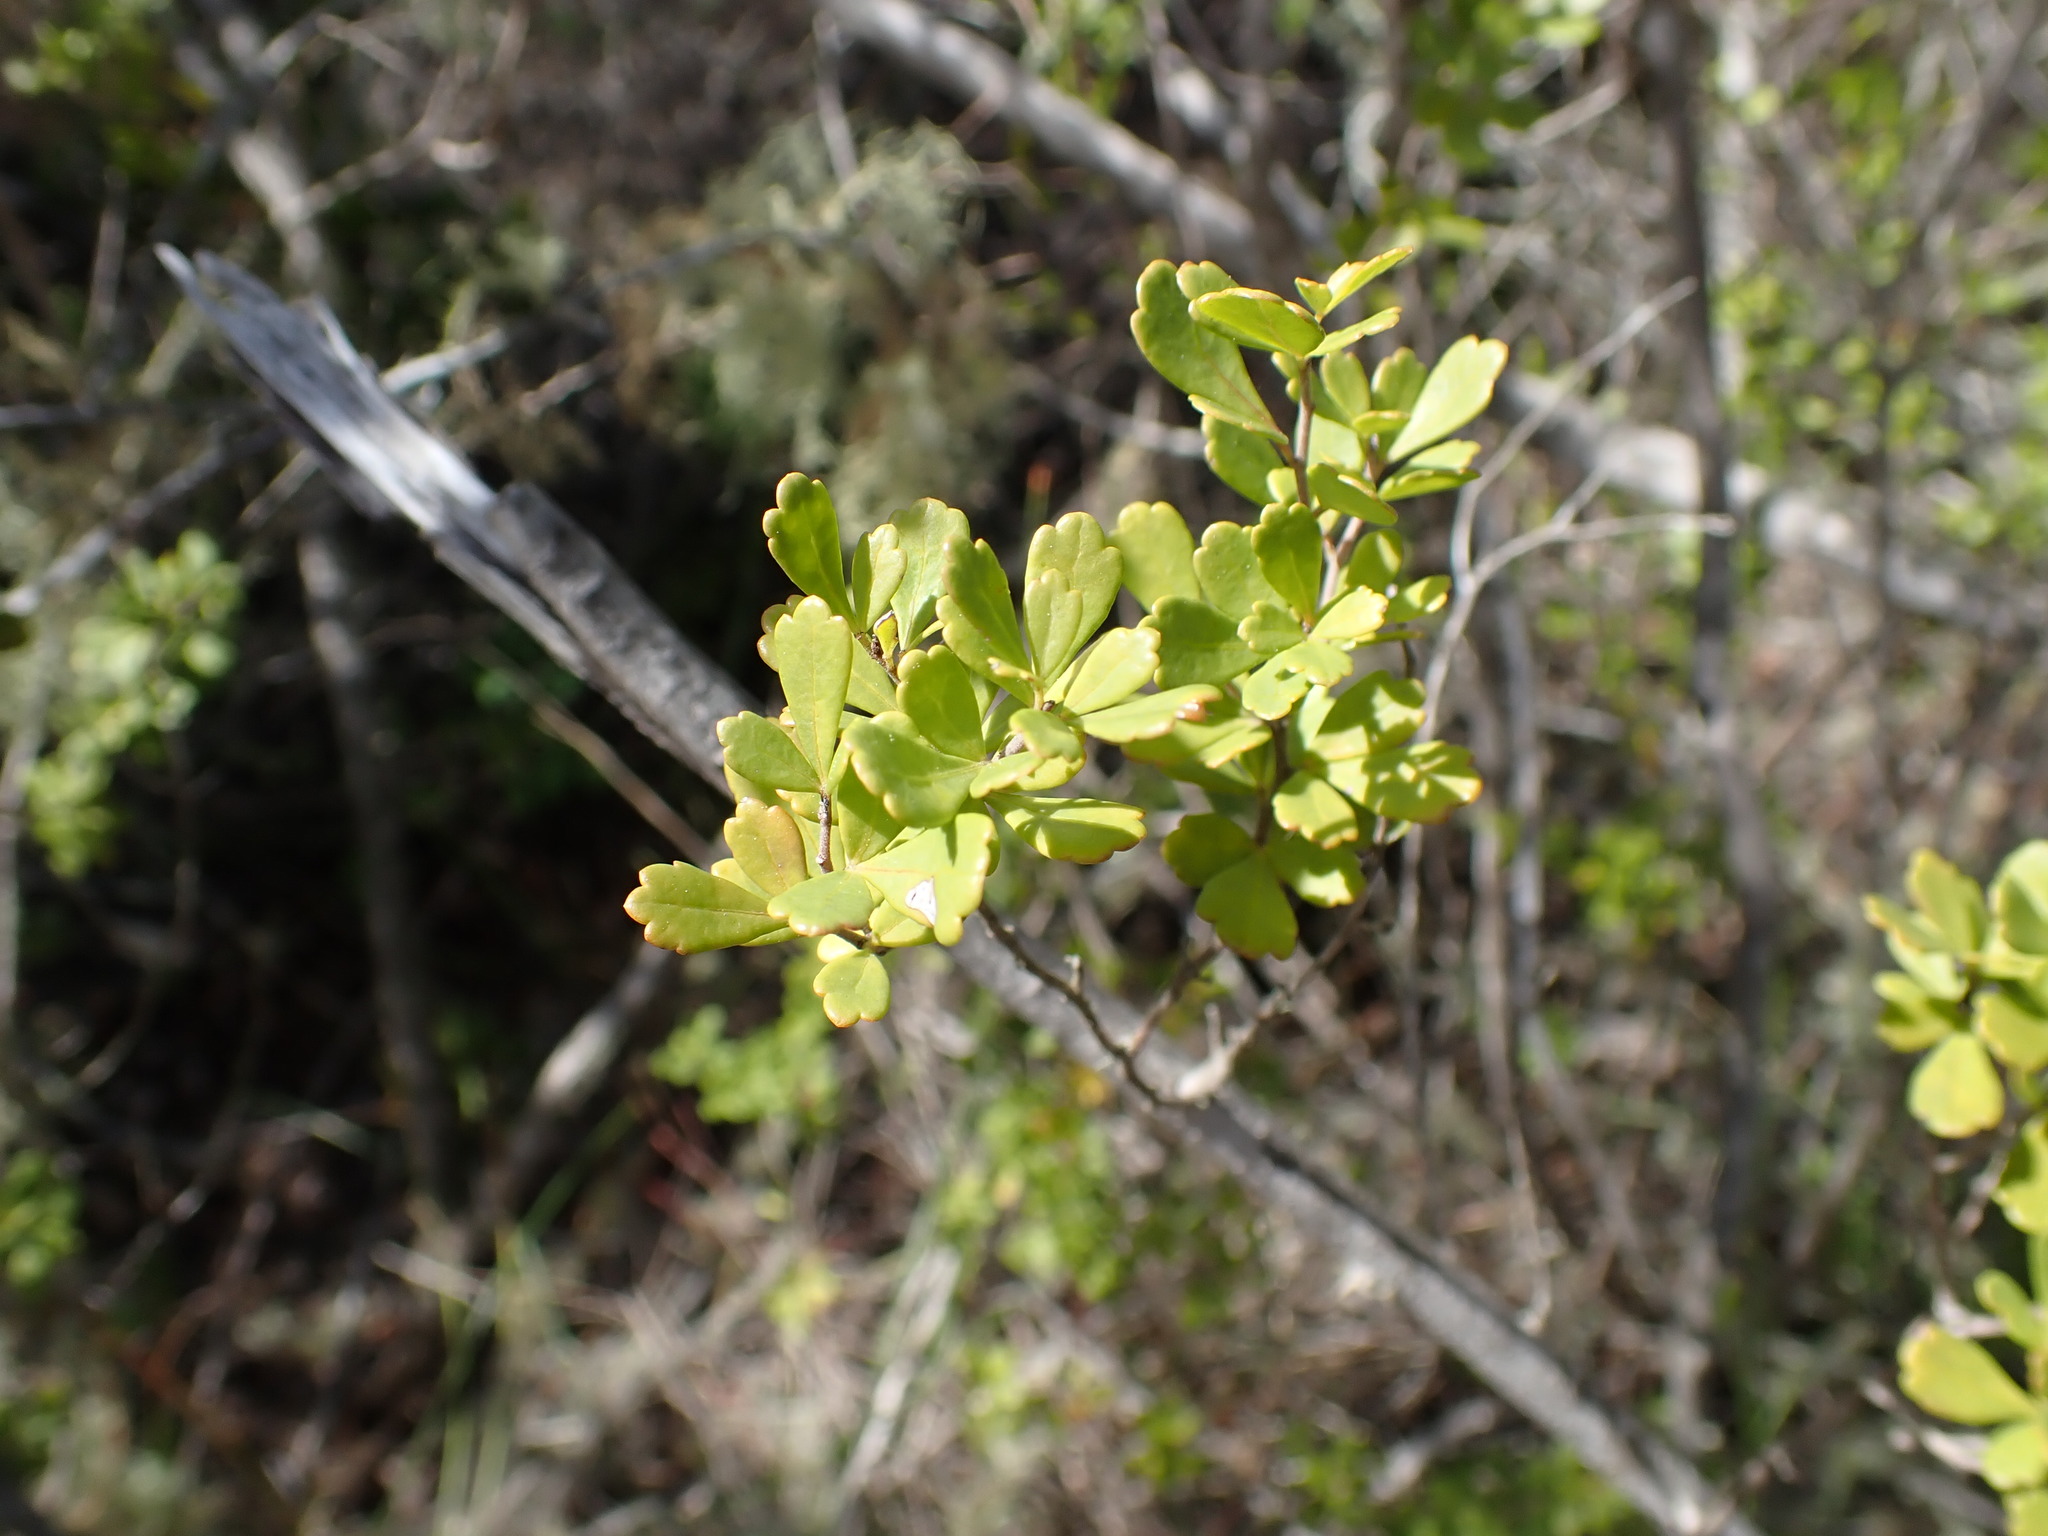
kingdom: Plantae
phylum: Tracheophyta
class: Magnoliopsida
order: Sapindales
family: Anacardiaceae
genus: Searsia
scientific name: Searsia crenata
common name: Crowberry
